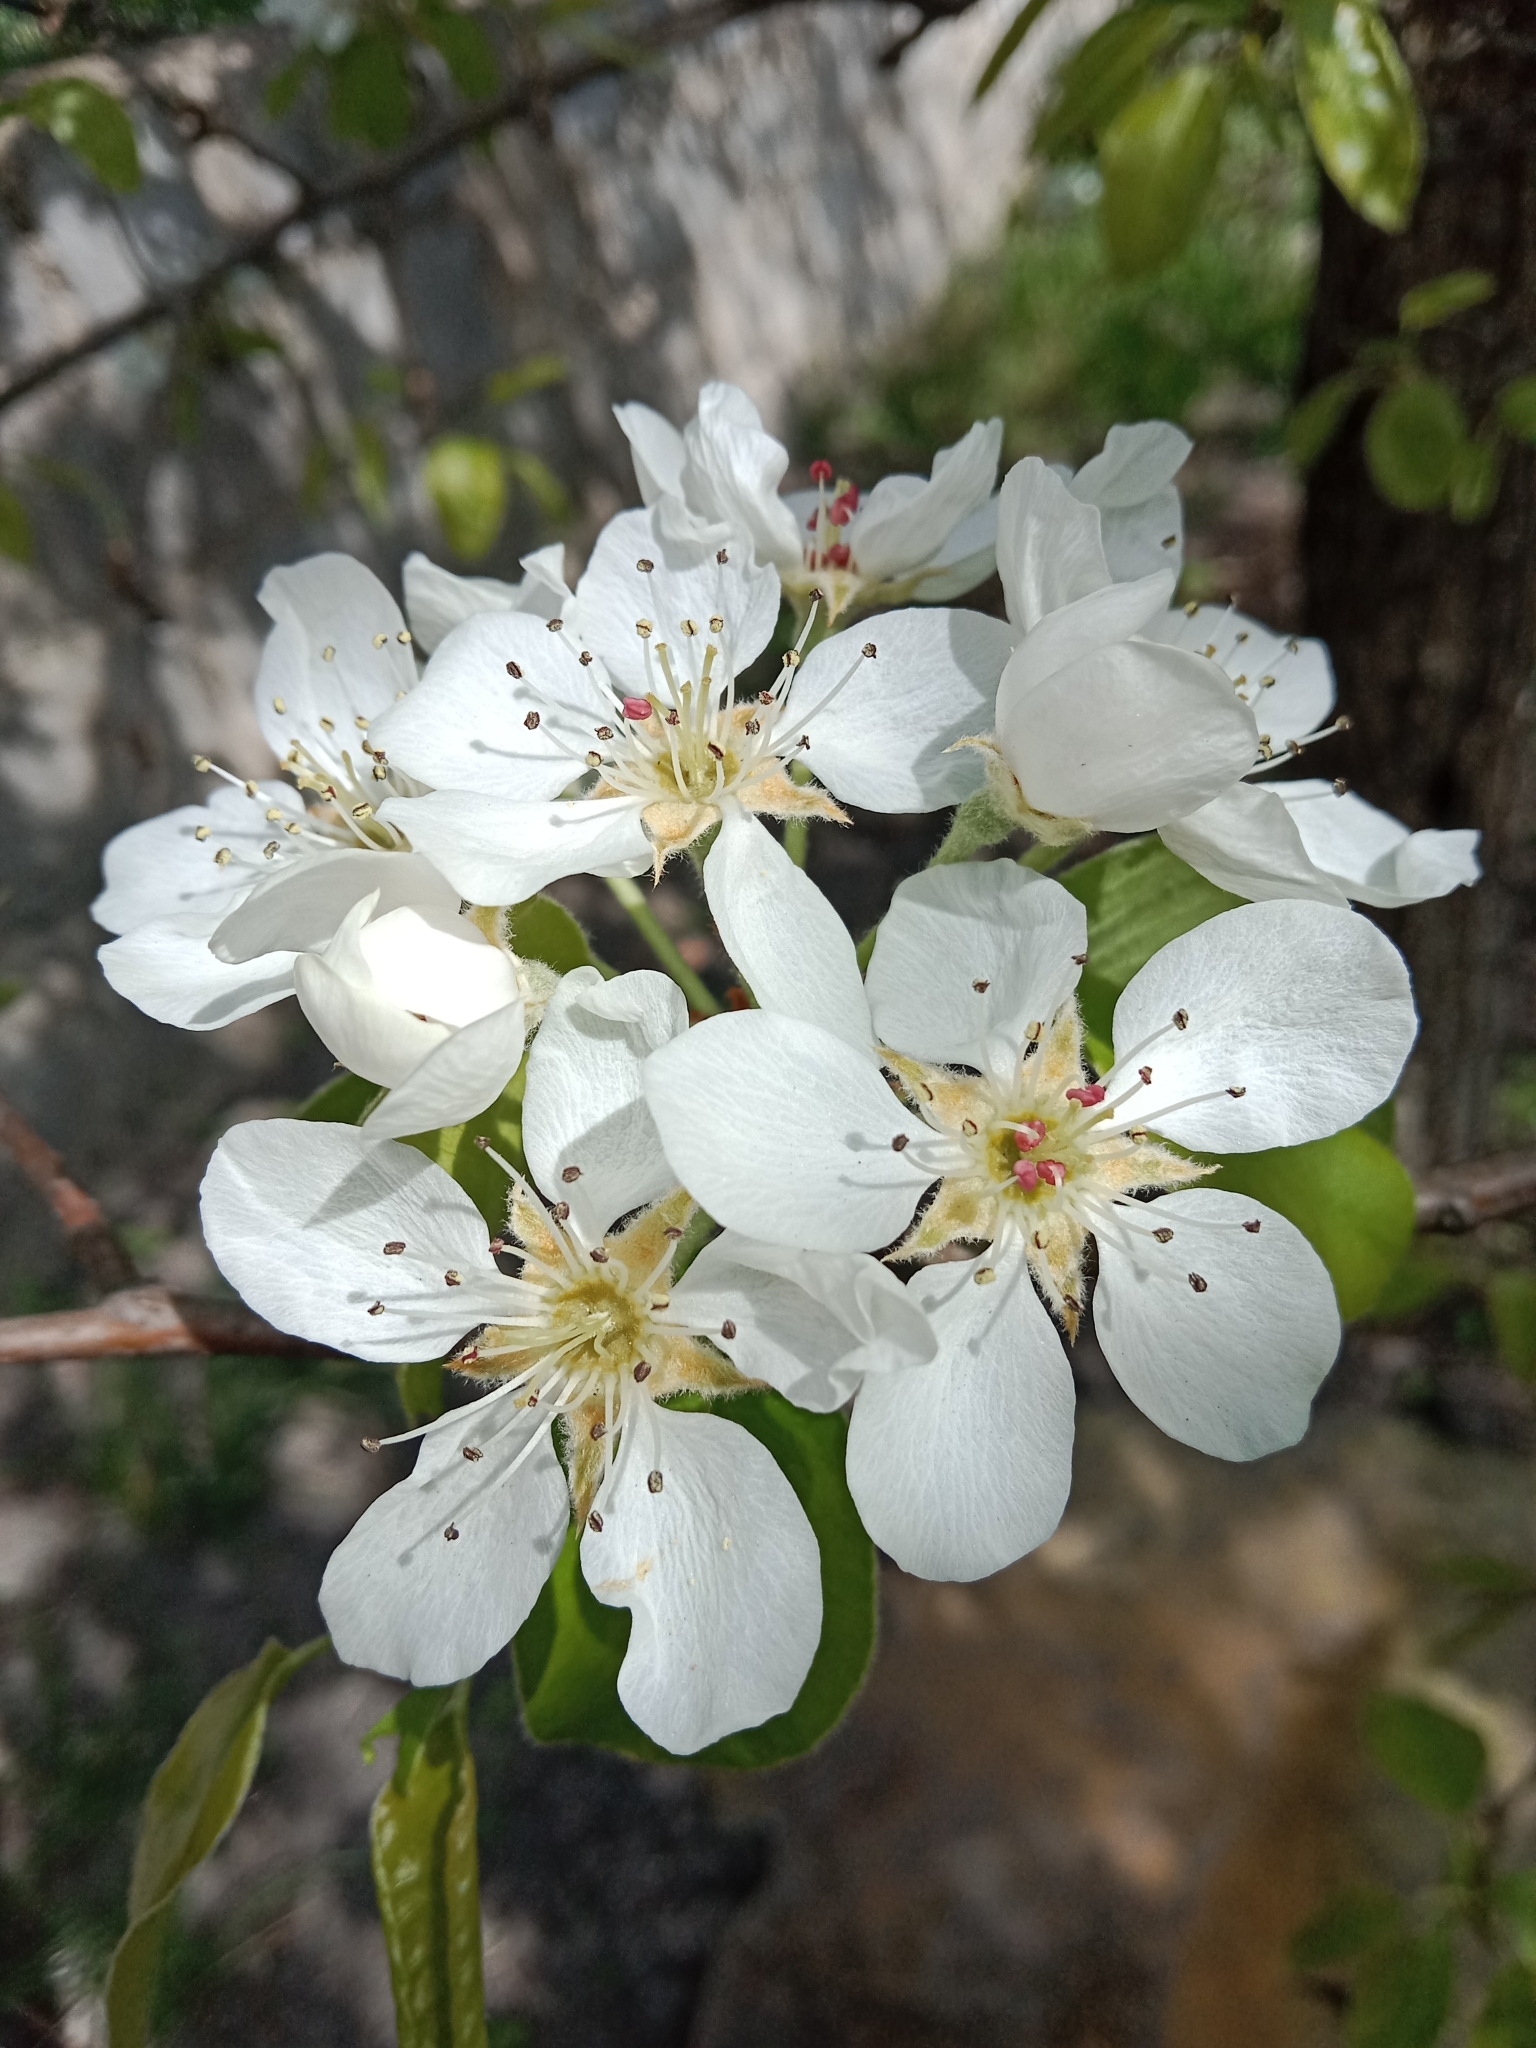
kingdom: Plantae
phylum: Tracheophyta
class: Magnoliopsida
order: Rosales
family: Rosaceae
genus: Pyrus
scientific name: Pyrus communis
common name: Pear
